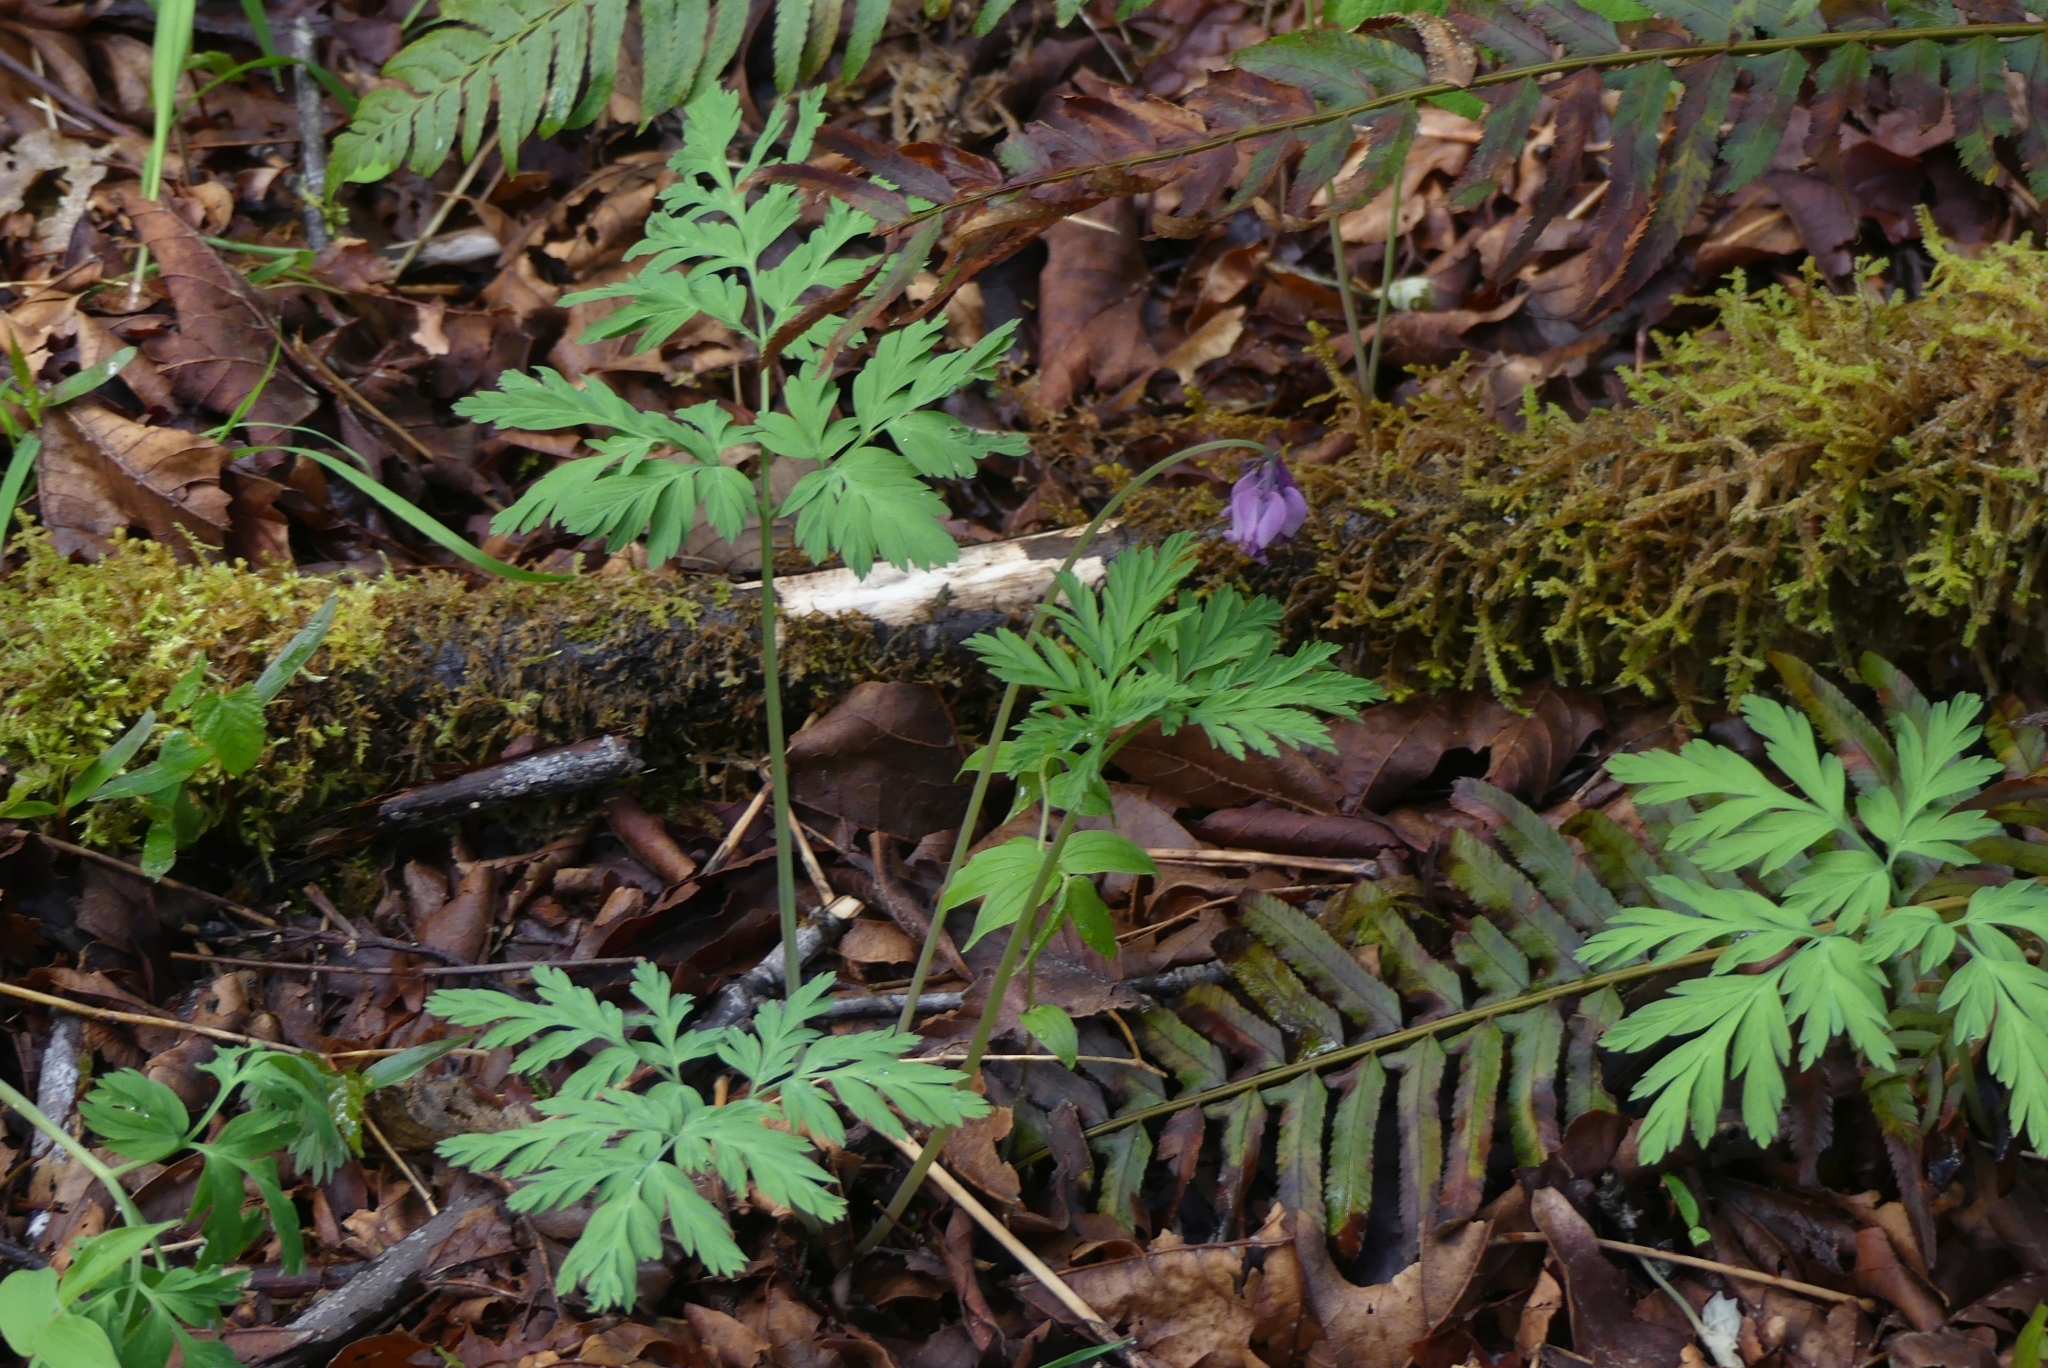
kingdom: Plantae
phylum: Tracheophyta
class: Magnoliopsida
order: Ranunculales
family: Papaveraceae
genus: Dicentra
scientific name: Dicentra formosa
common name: Bleeding-heart
